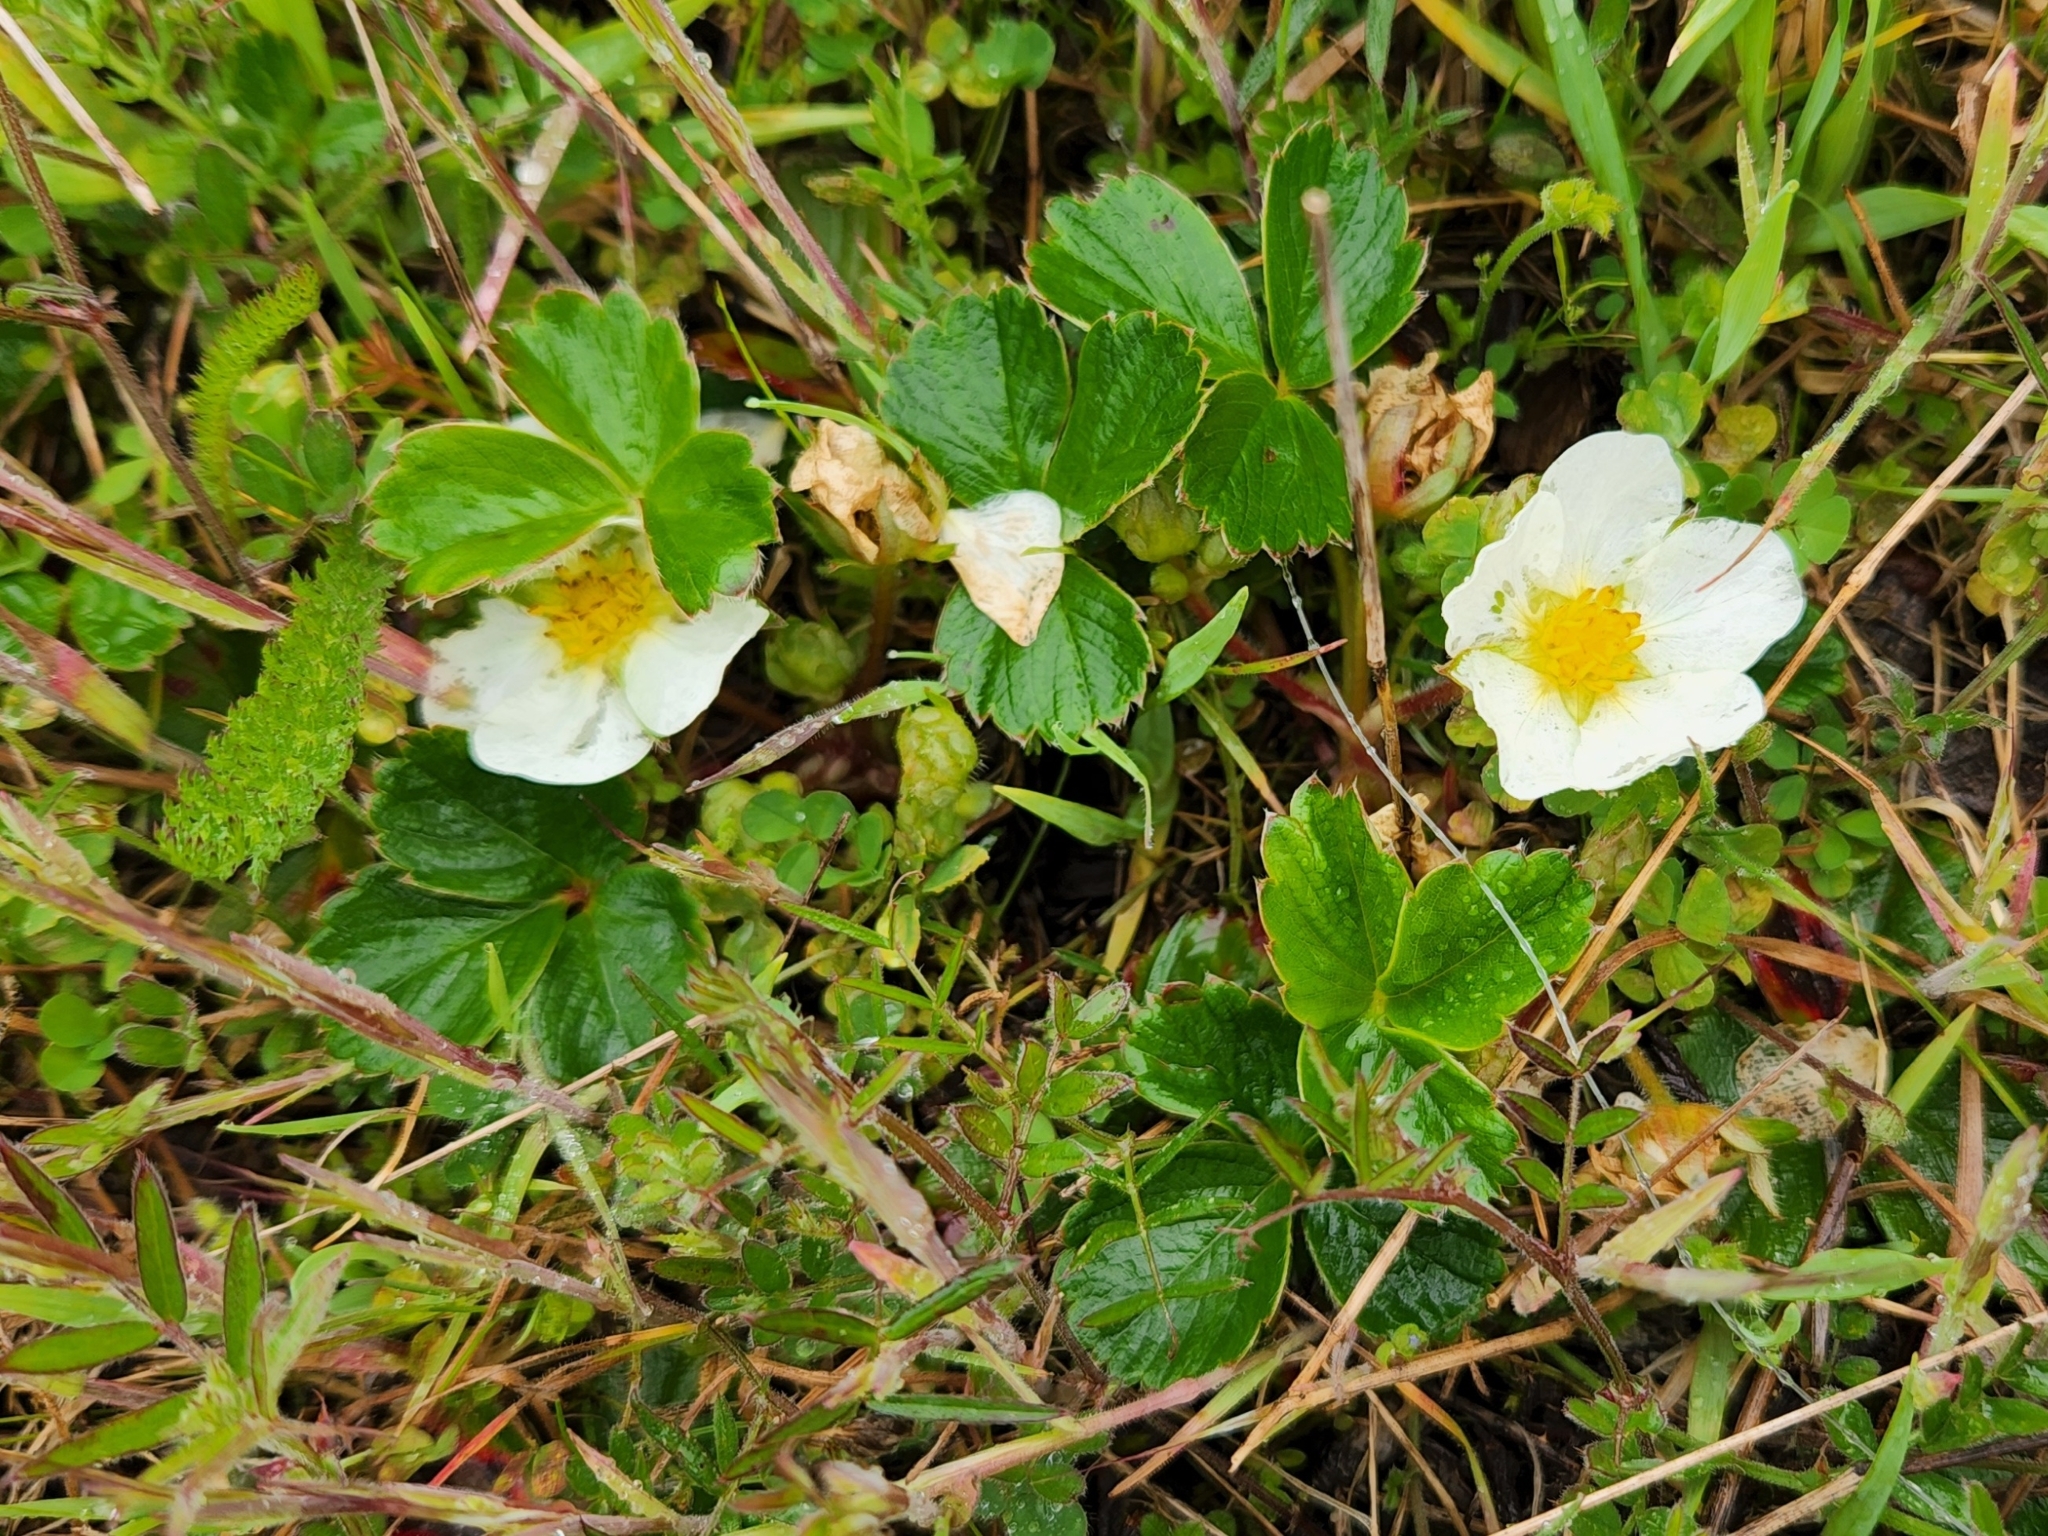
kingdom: Plantae
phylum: Tracheophyta
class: Magnoliopsida
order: Rosales
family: Rosaceae
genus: Fragaria
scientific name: Fragaria chiloensis
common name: Beach strawberry
